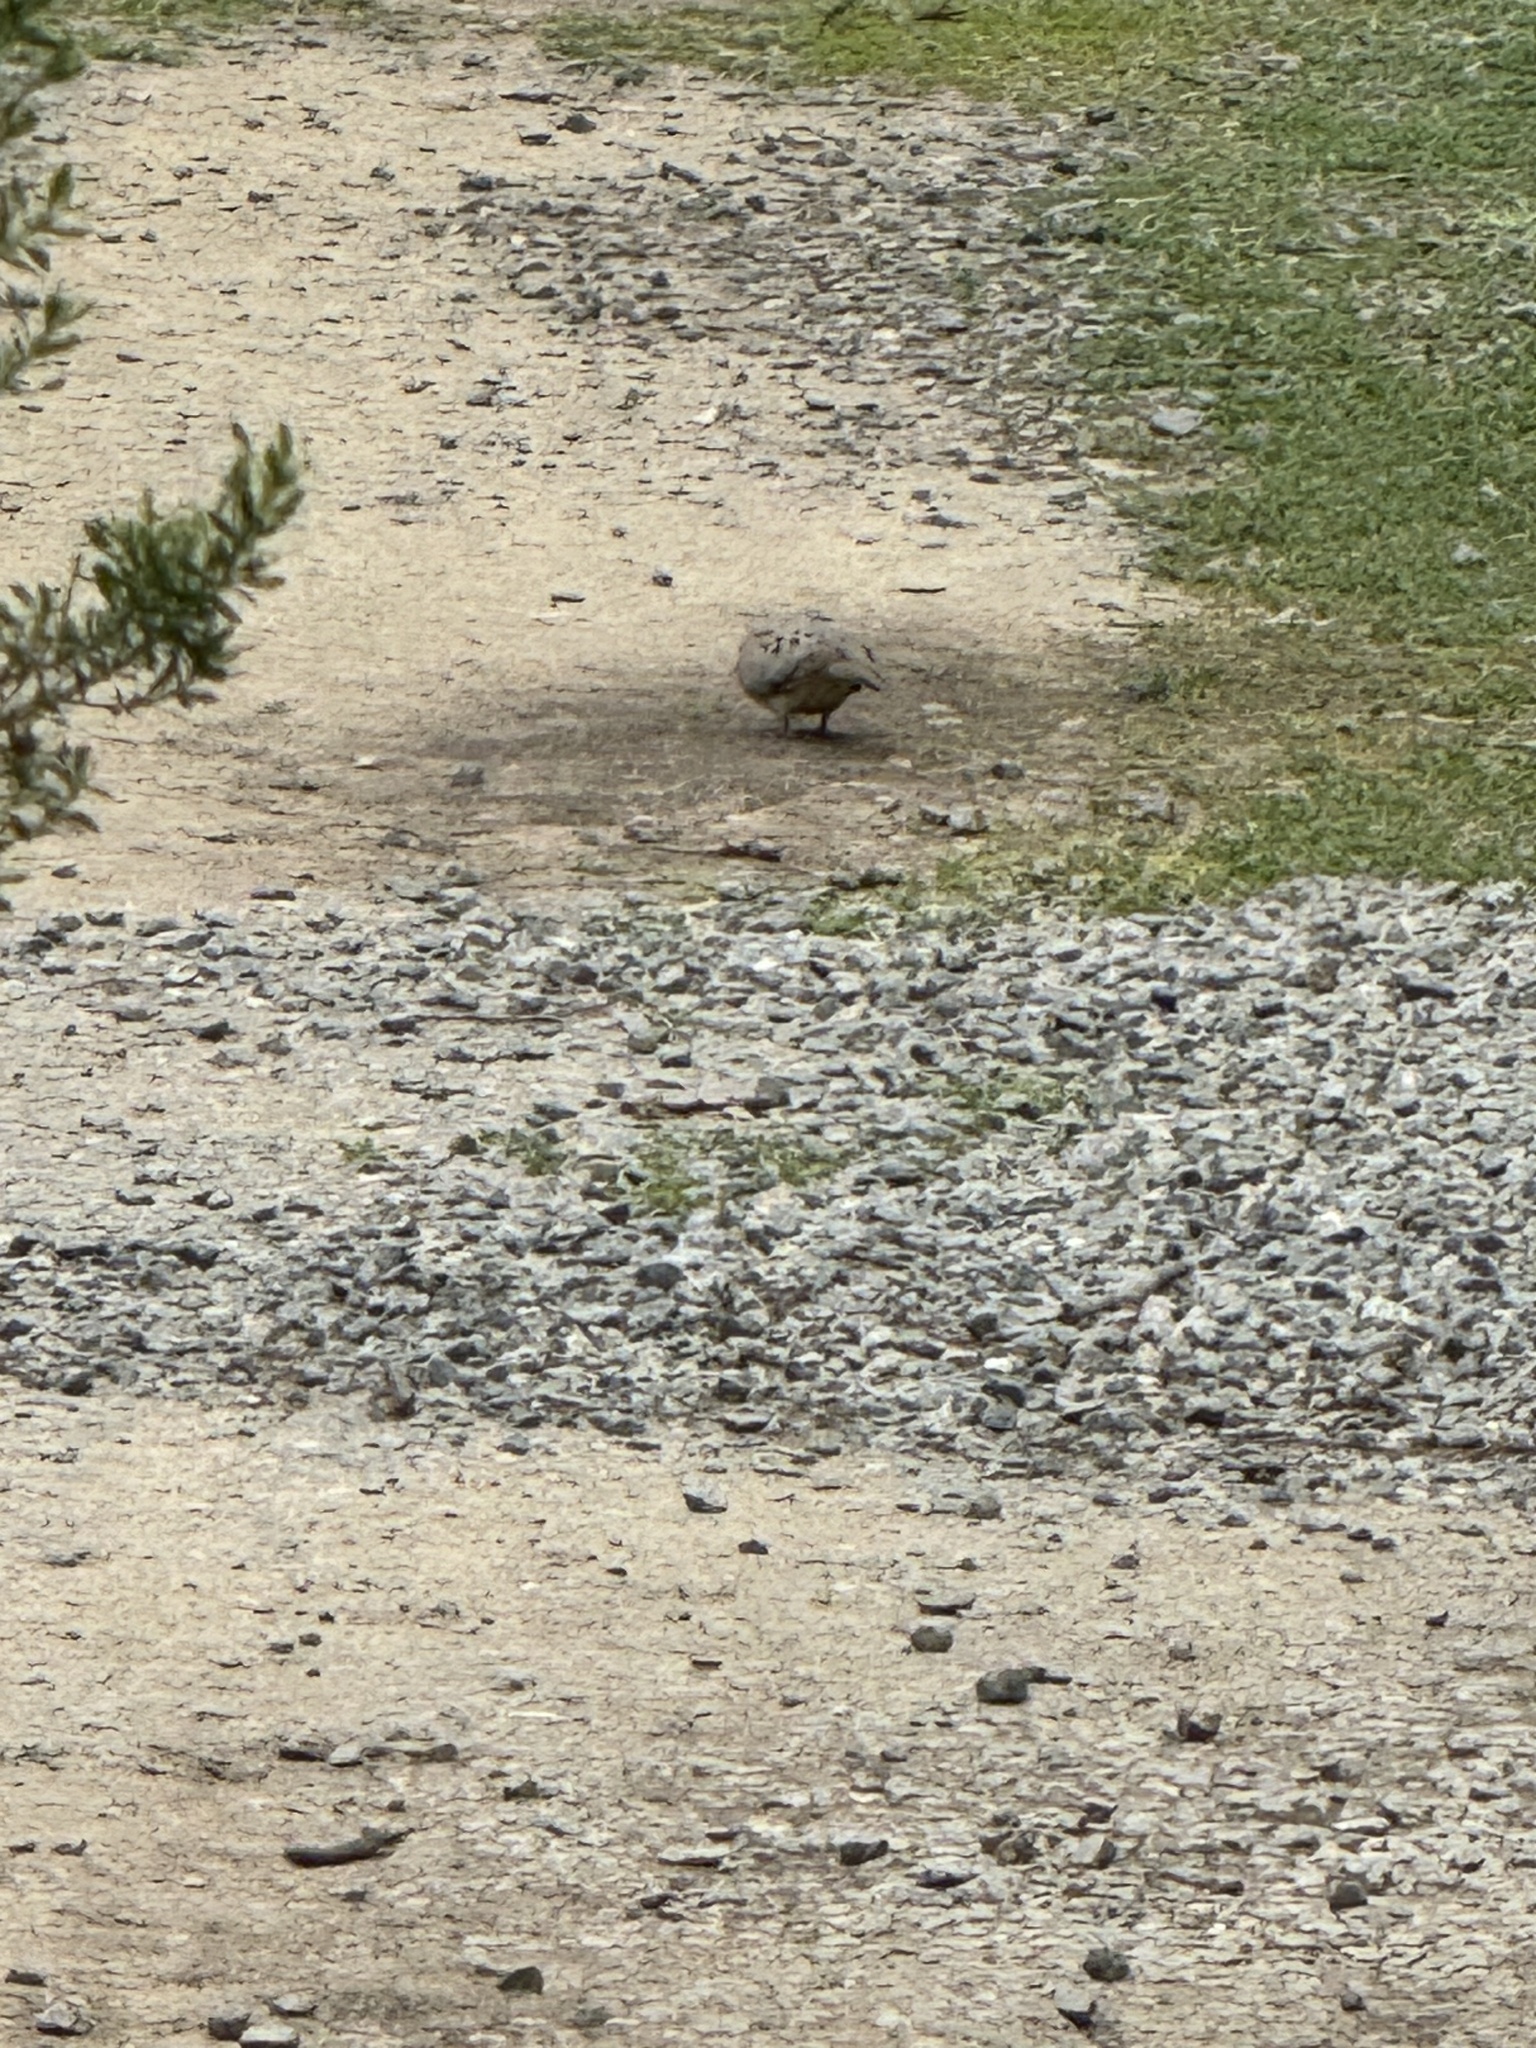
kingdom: Animalia
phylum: Chordata
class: Aves
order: Columbiformes
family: Columbidae
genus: Zenaida
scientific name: Zenaida macroura
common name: Mourning dove
